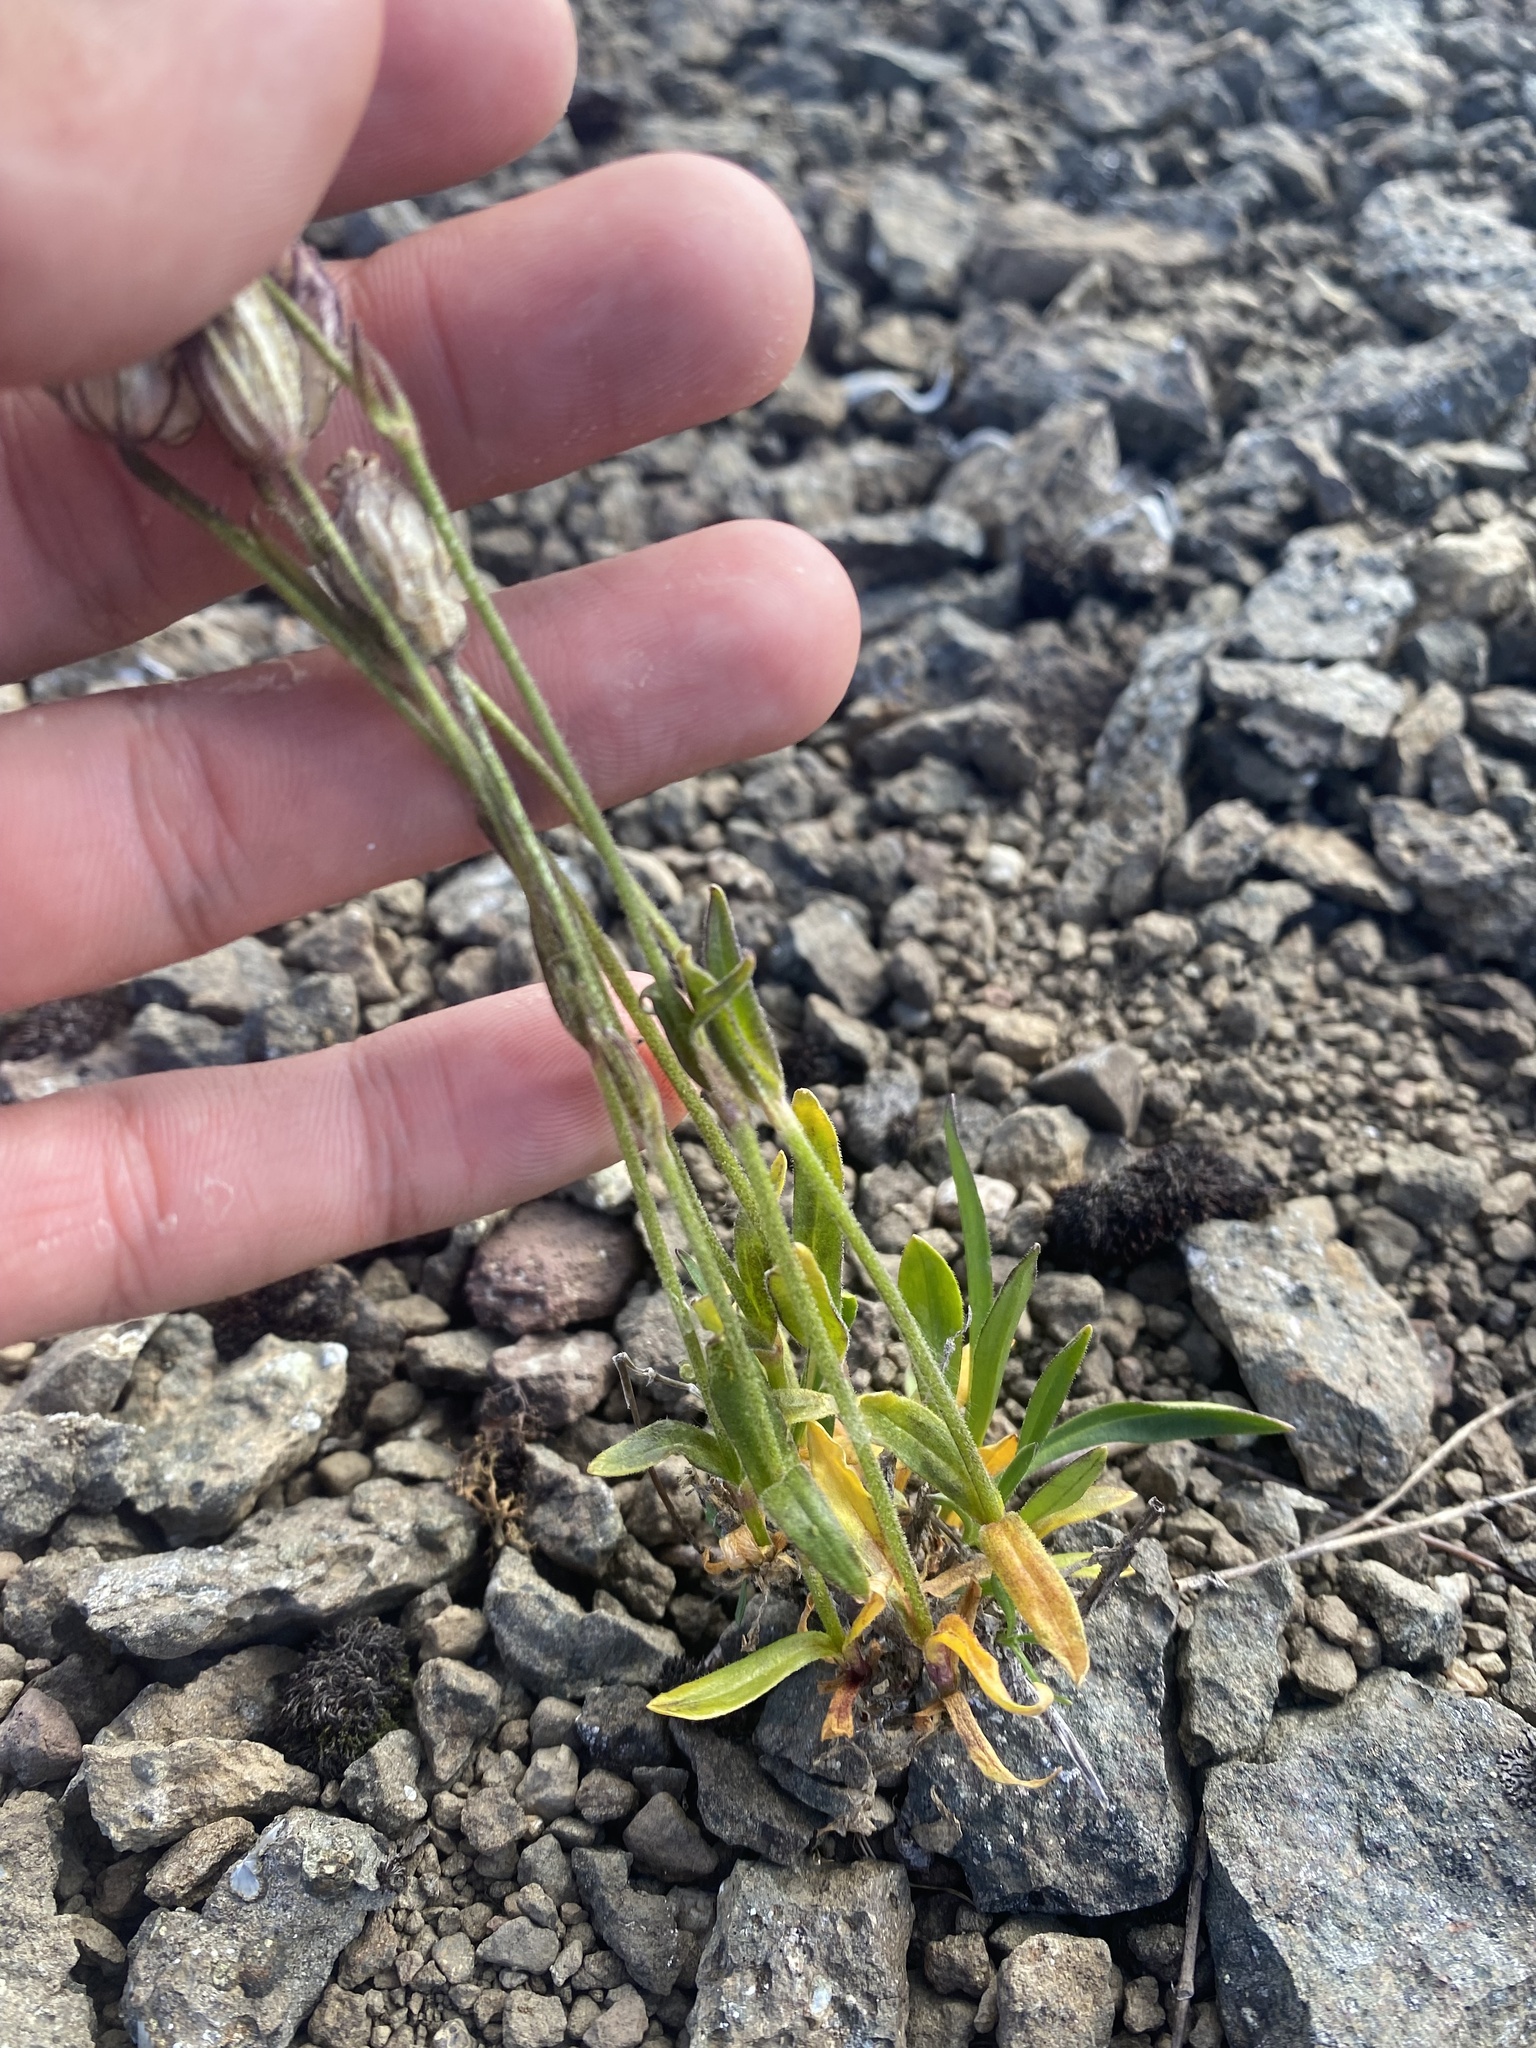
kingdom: Plantae
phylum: Tracheophyta
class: Magnoliopsida
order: Caryophyllales
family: Caryophyllaceae
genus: Silene
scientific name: Silene wahlbergella
